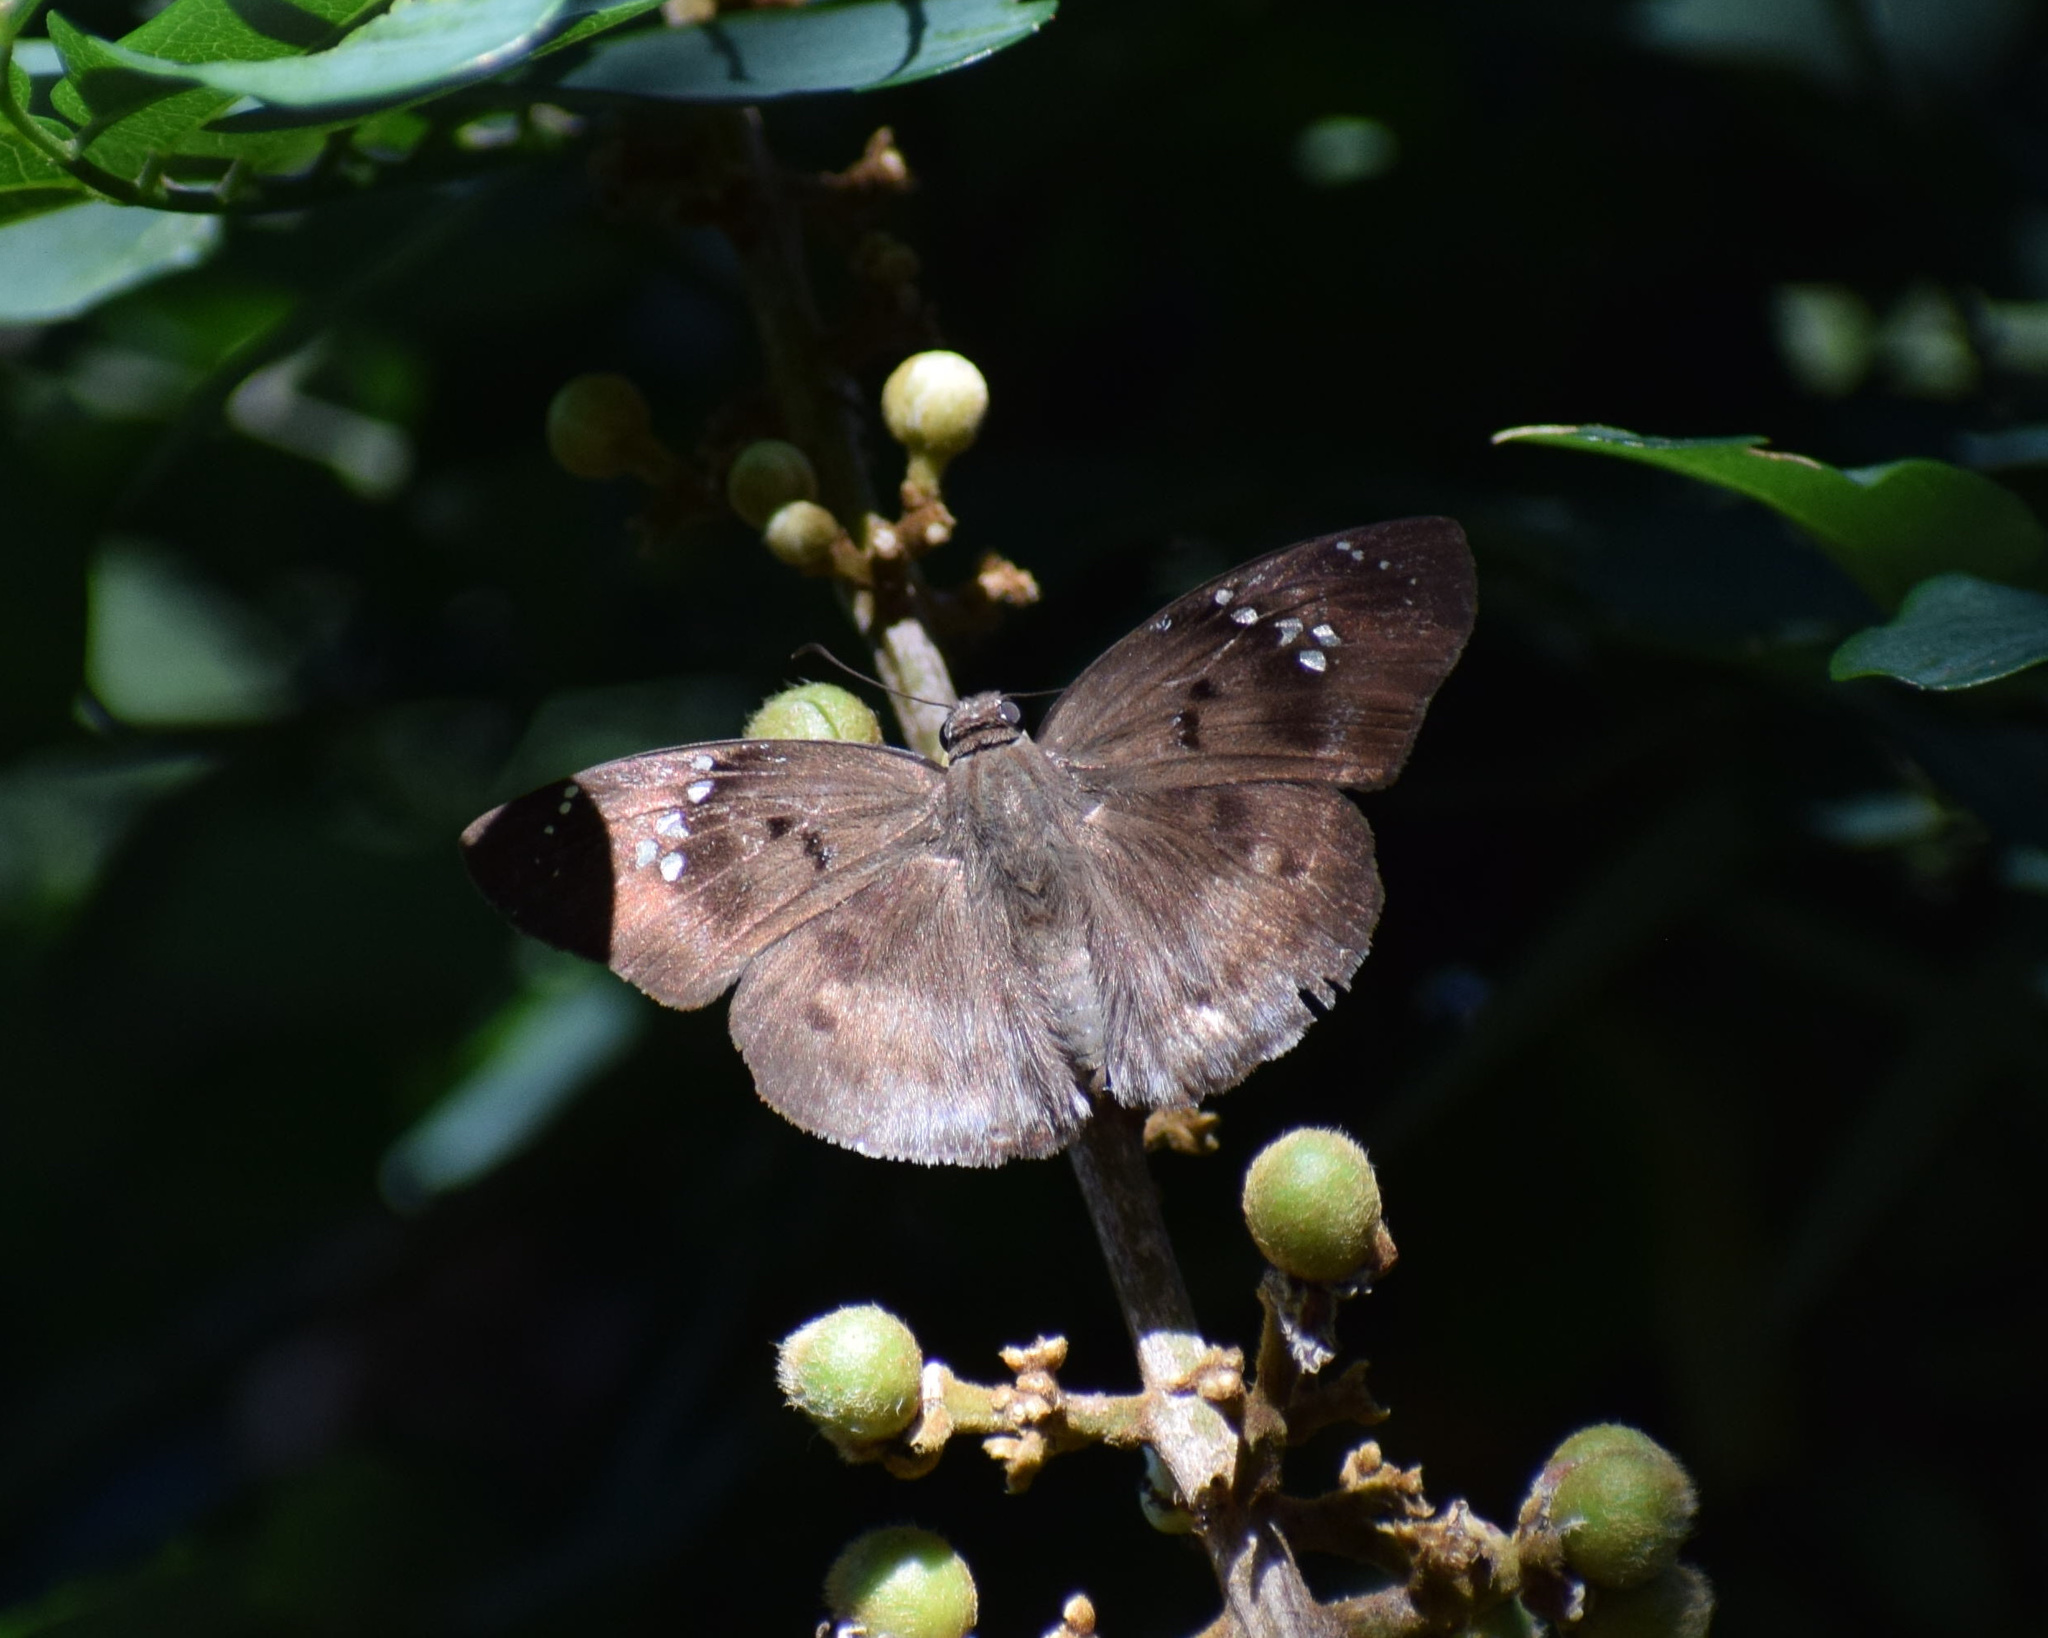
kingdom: Plantae
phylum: Tracheophyta
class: Magnoliopsida
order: Sapindales
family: Sapindaceae
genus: Deinbollia
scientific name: Deinbollia oblongifolia
